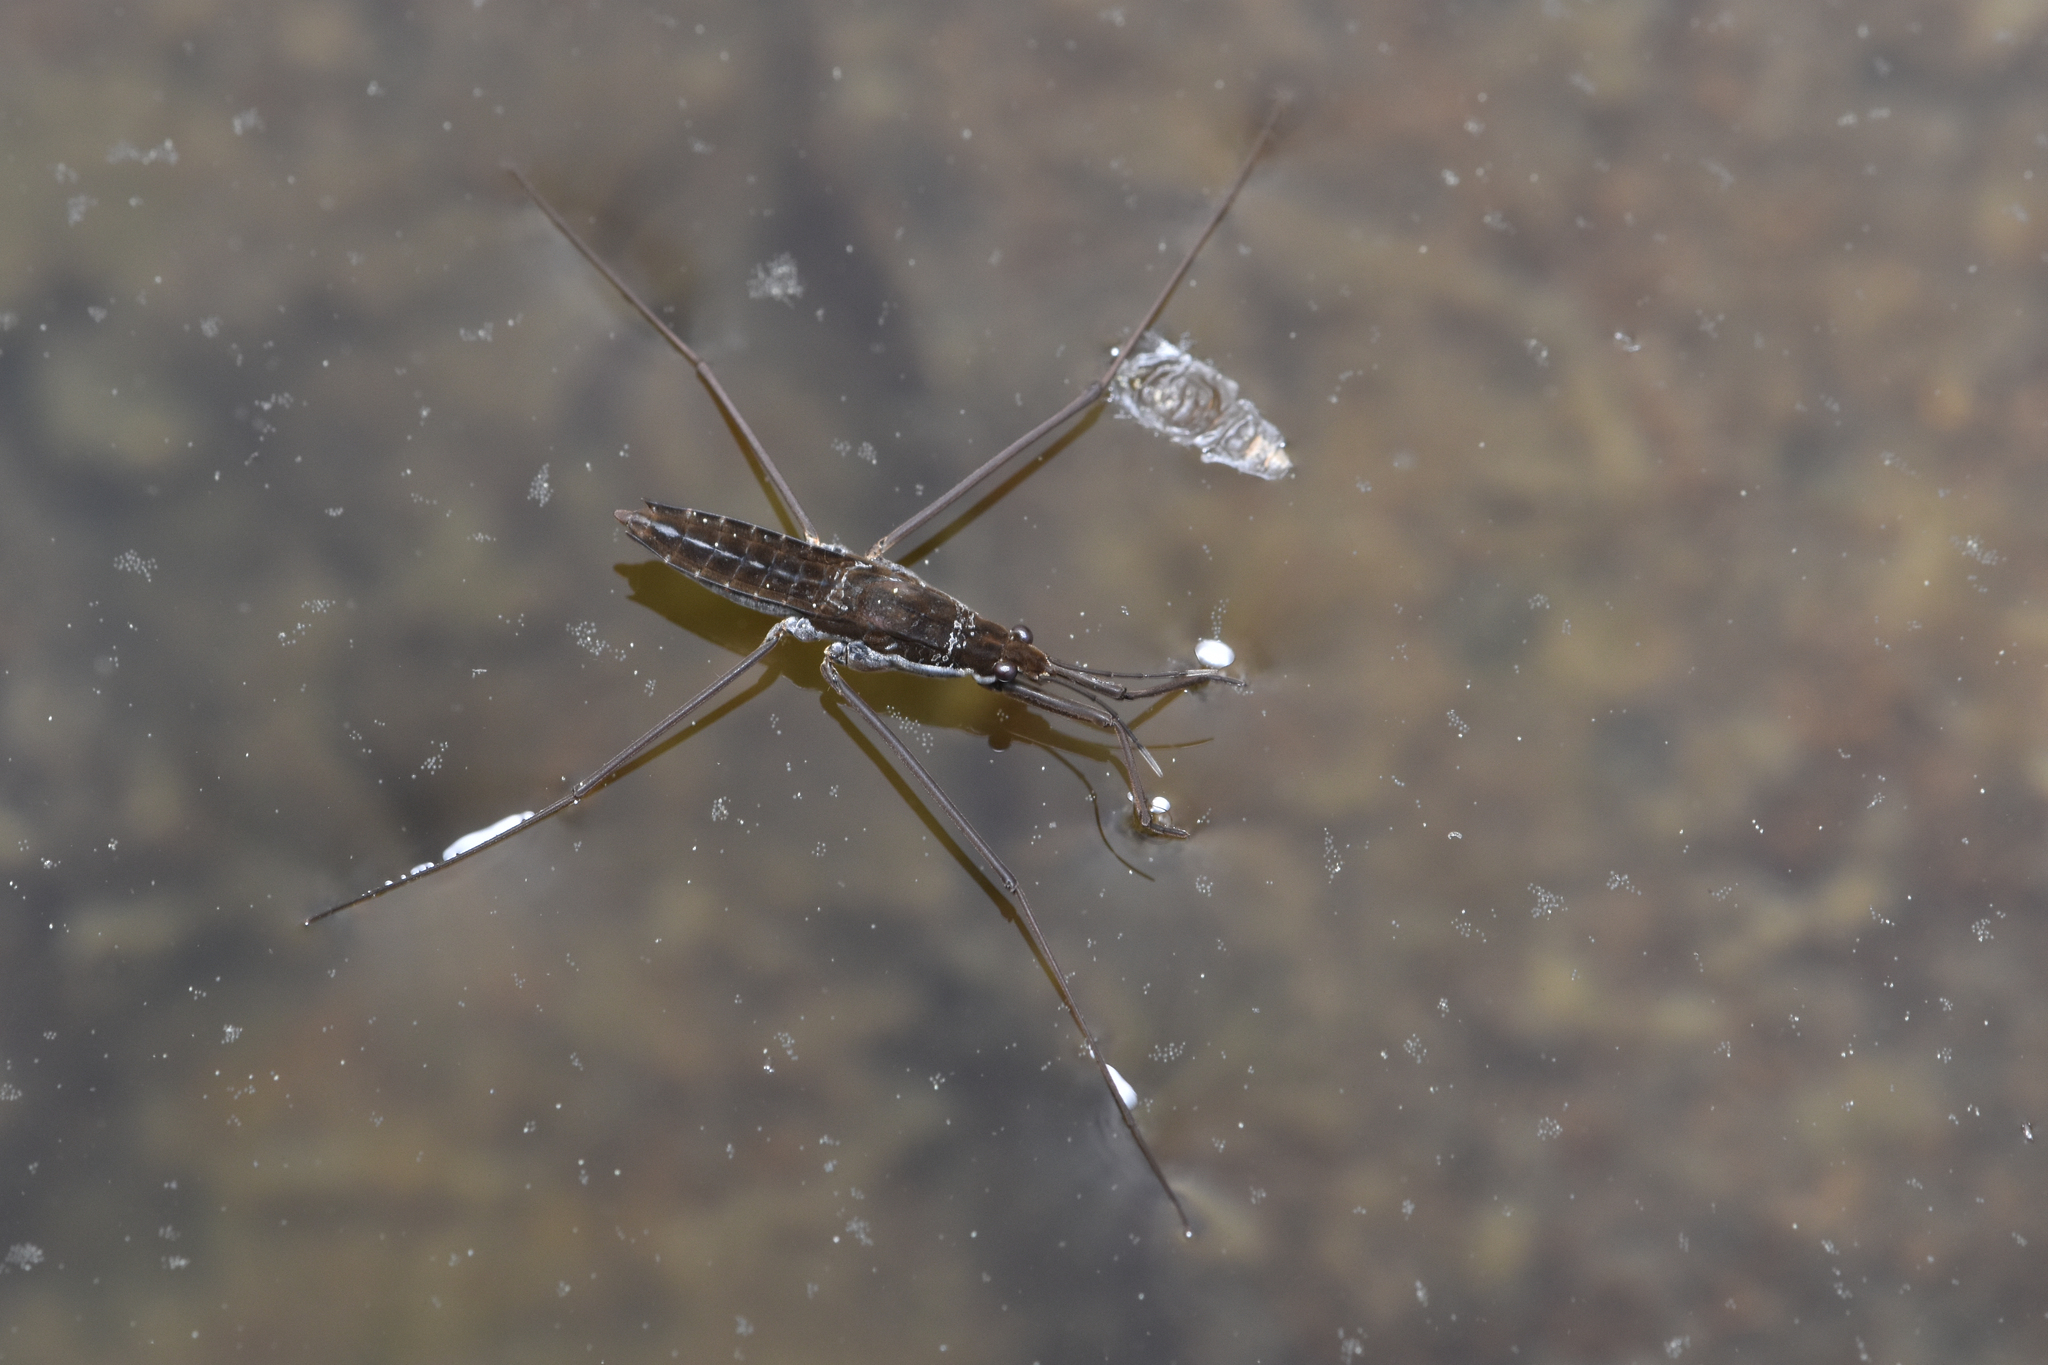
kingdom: Animalia
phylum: Arthropoda
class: Insecta
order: Hemiptera
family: Gerridae
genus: Aquarius
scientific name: Aquarius remigis
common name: Common water strider
